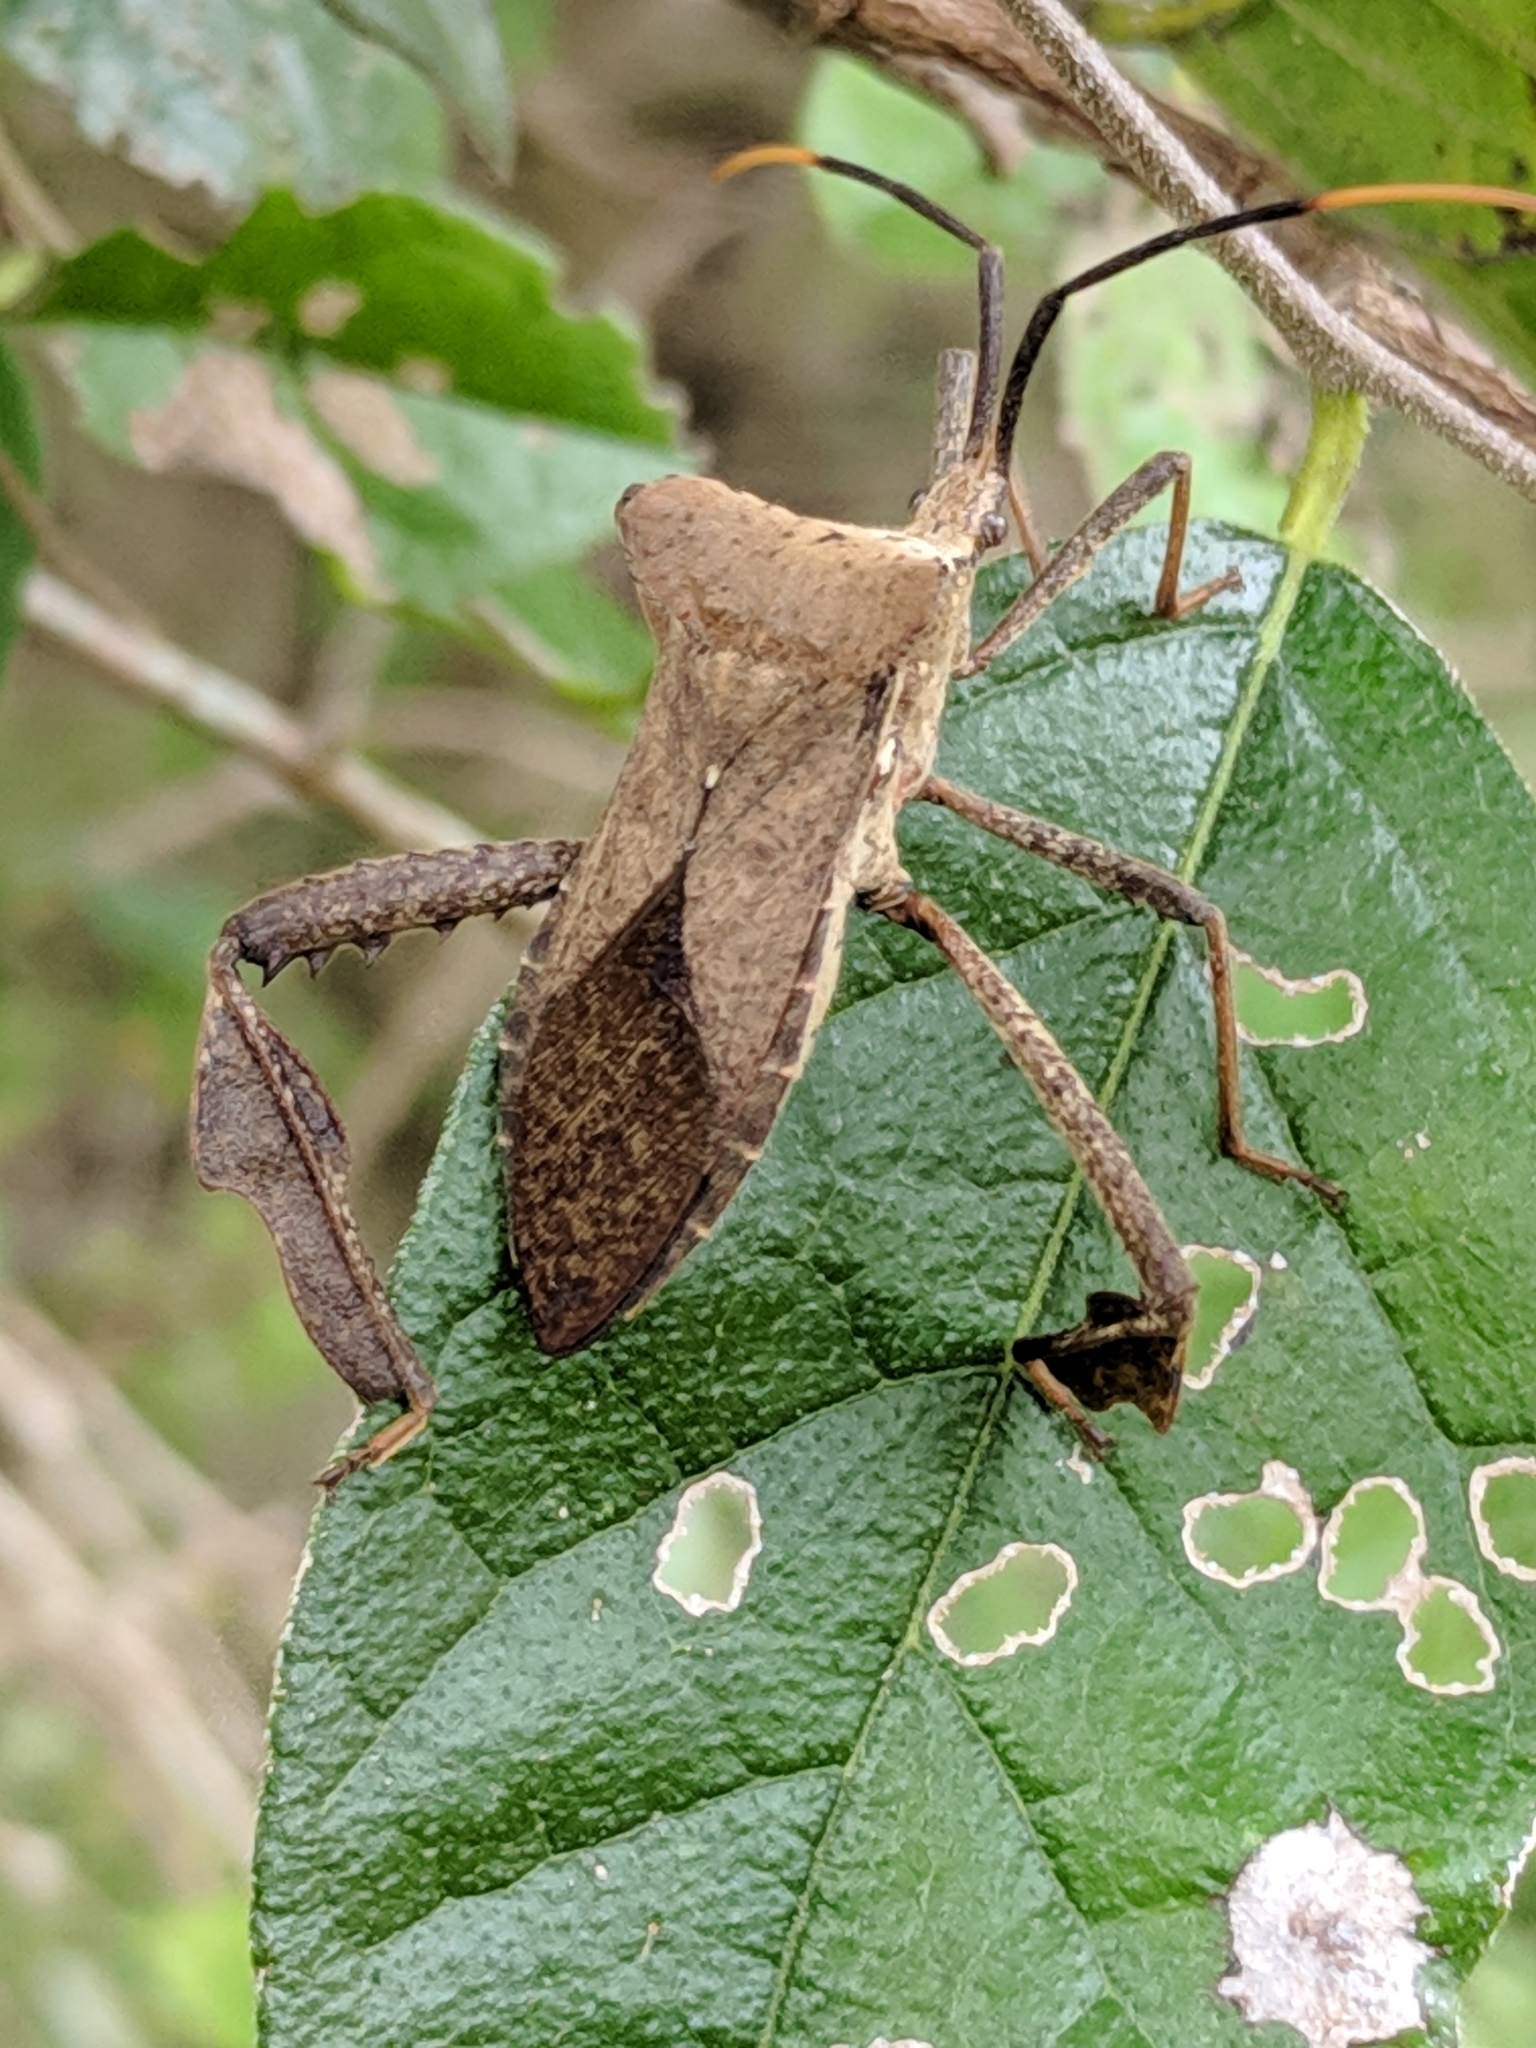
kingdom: Animalia
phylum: Arthropoda
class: Insecta
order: Hemiptera
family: Coreidae
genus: Acanthocephala
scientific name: Acanthocephala alata
